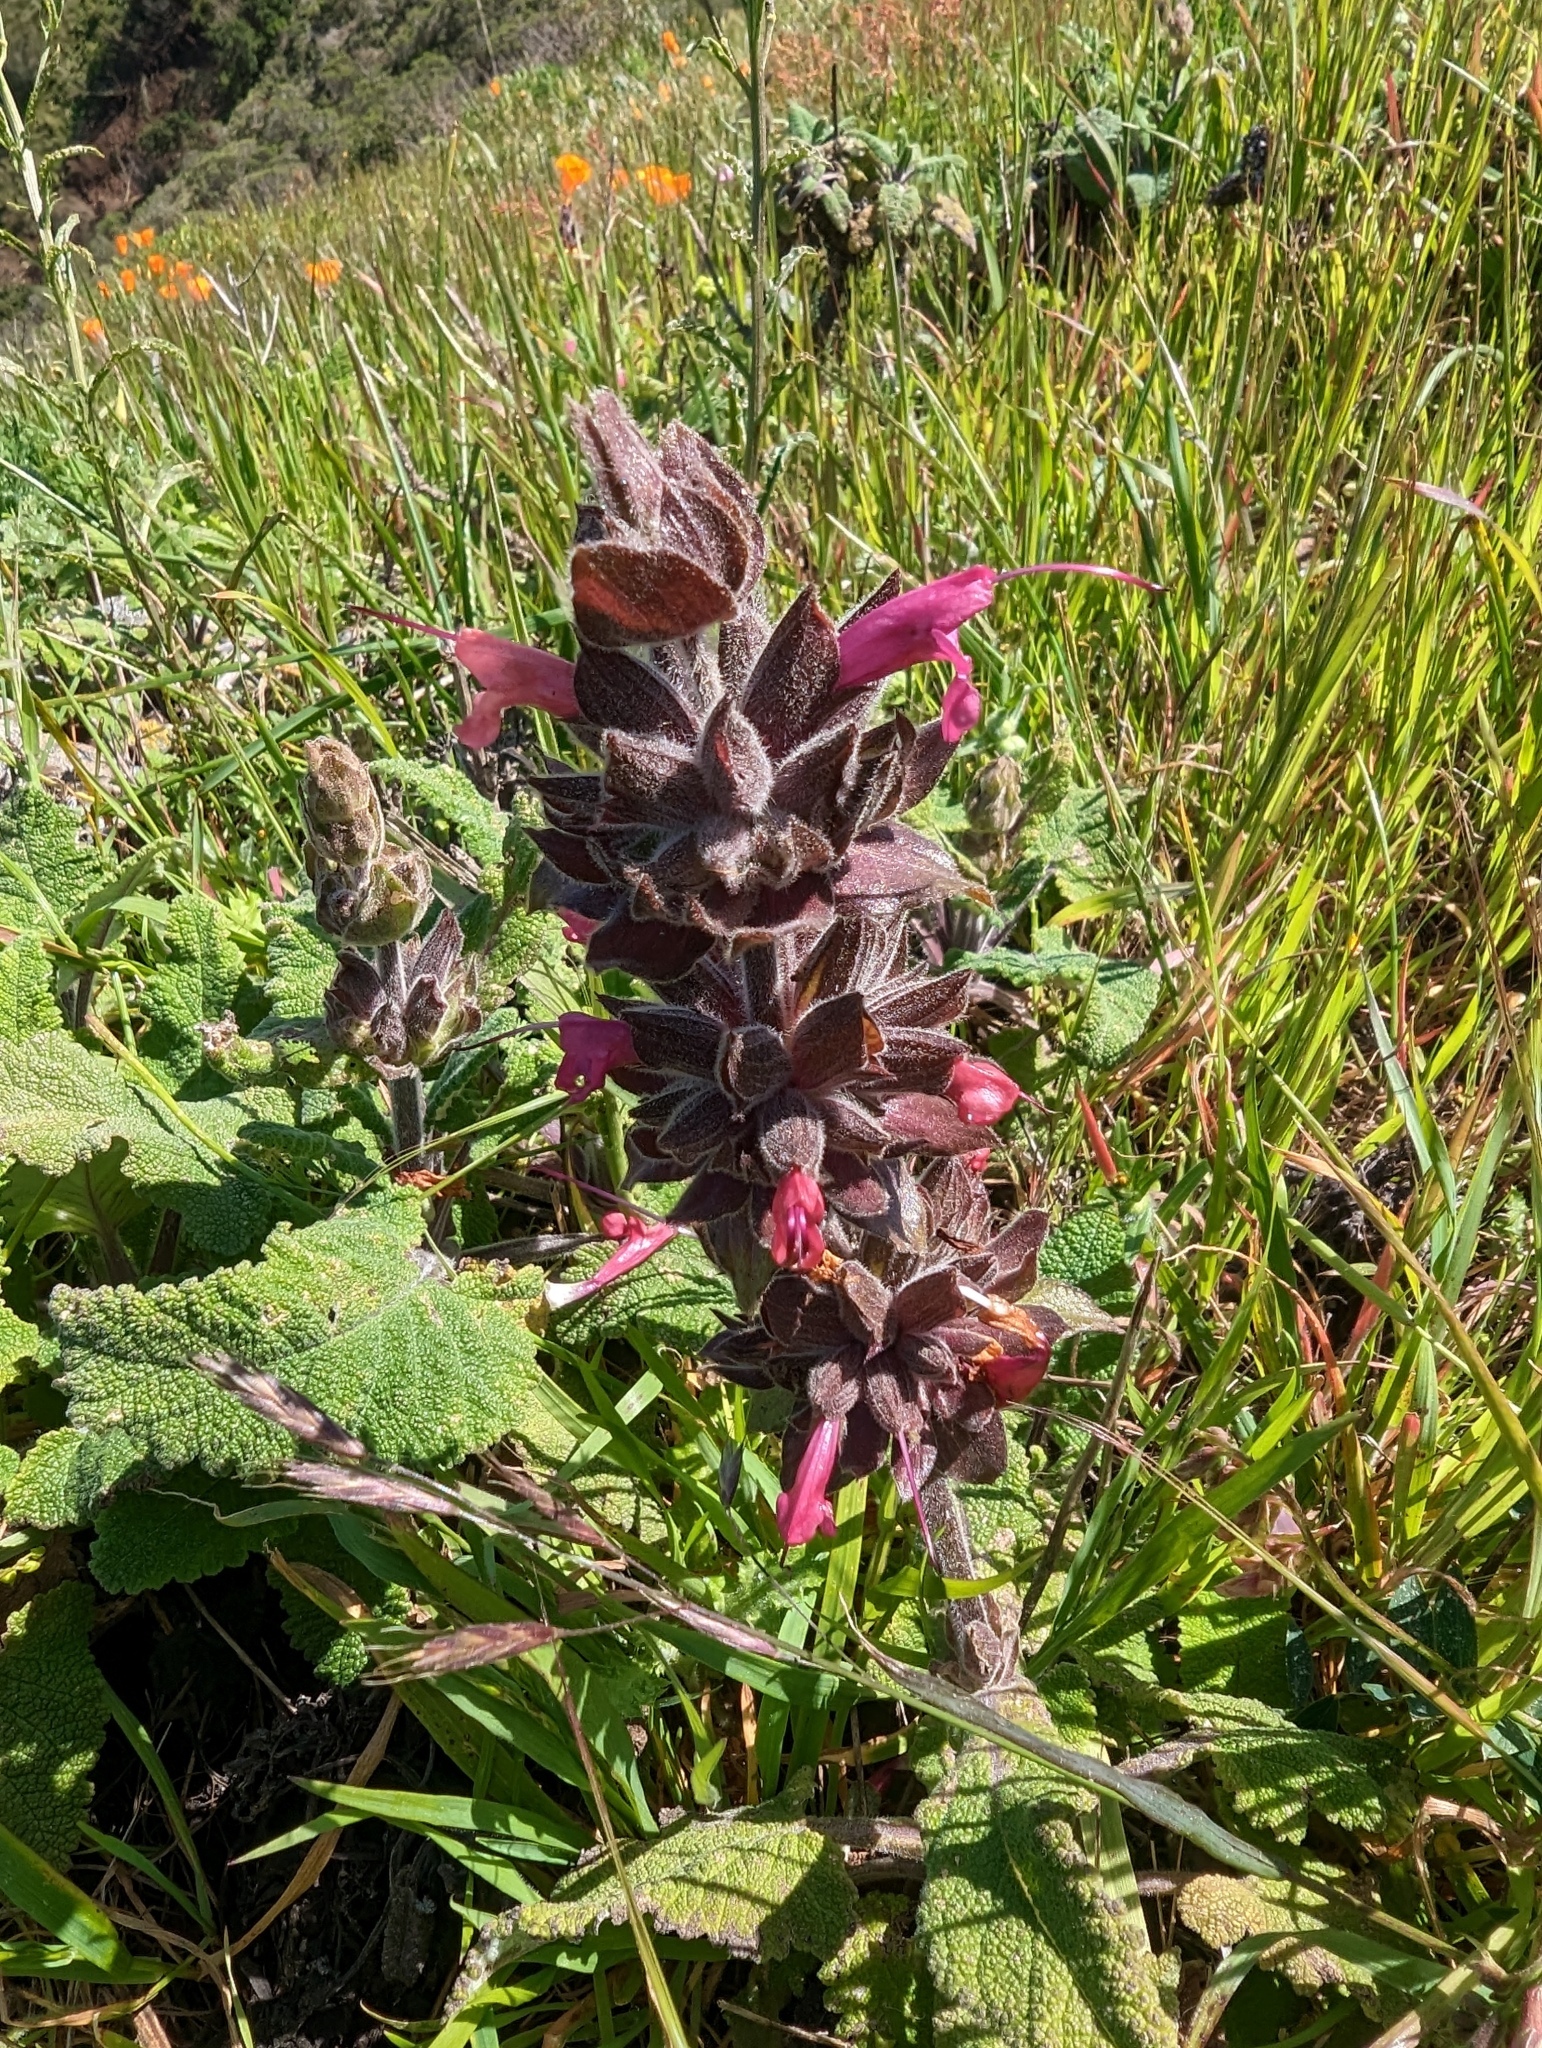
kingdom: Plantae
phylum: Tracheophyta
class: Magnoliopsida
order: Lamiales
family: Lamiaceae
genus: Salvia
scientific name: Salvia spathacea
